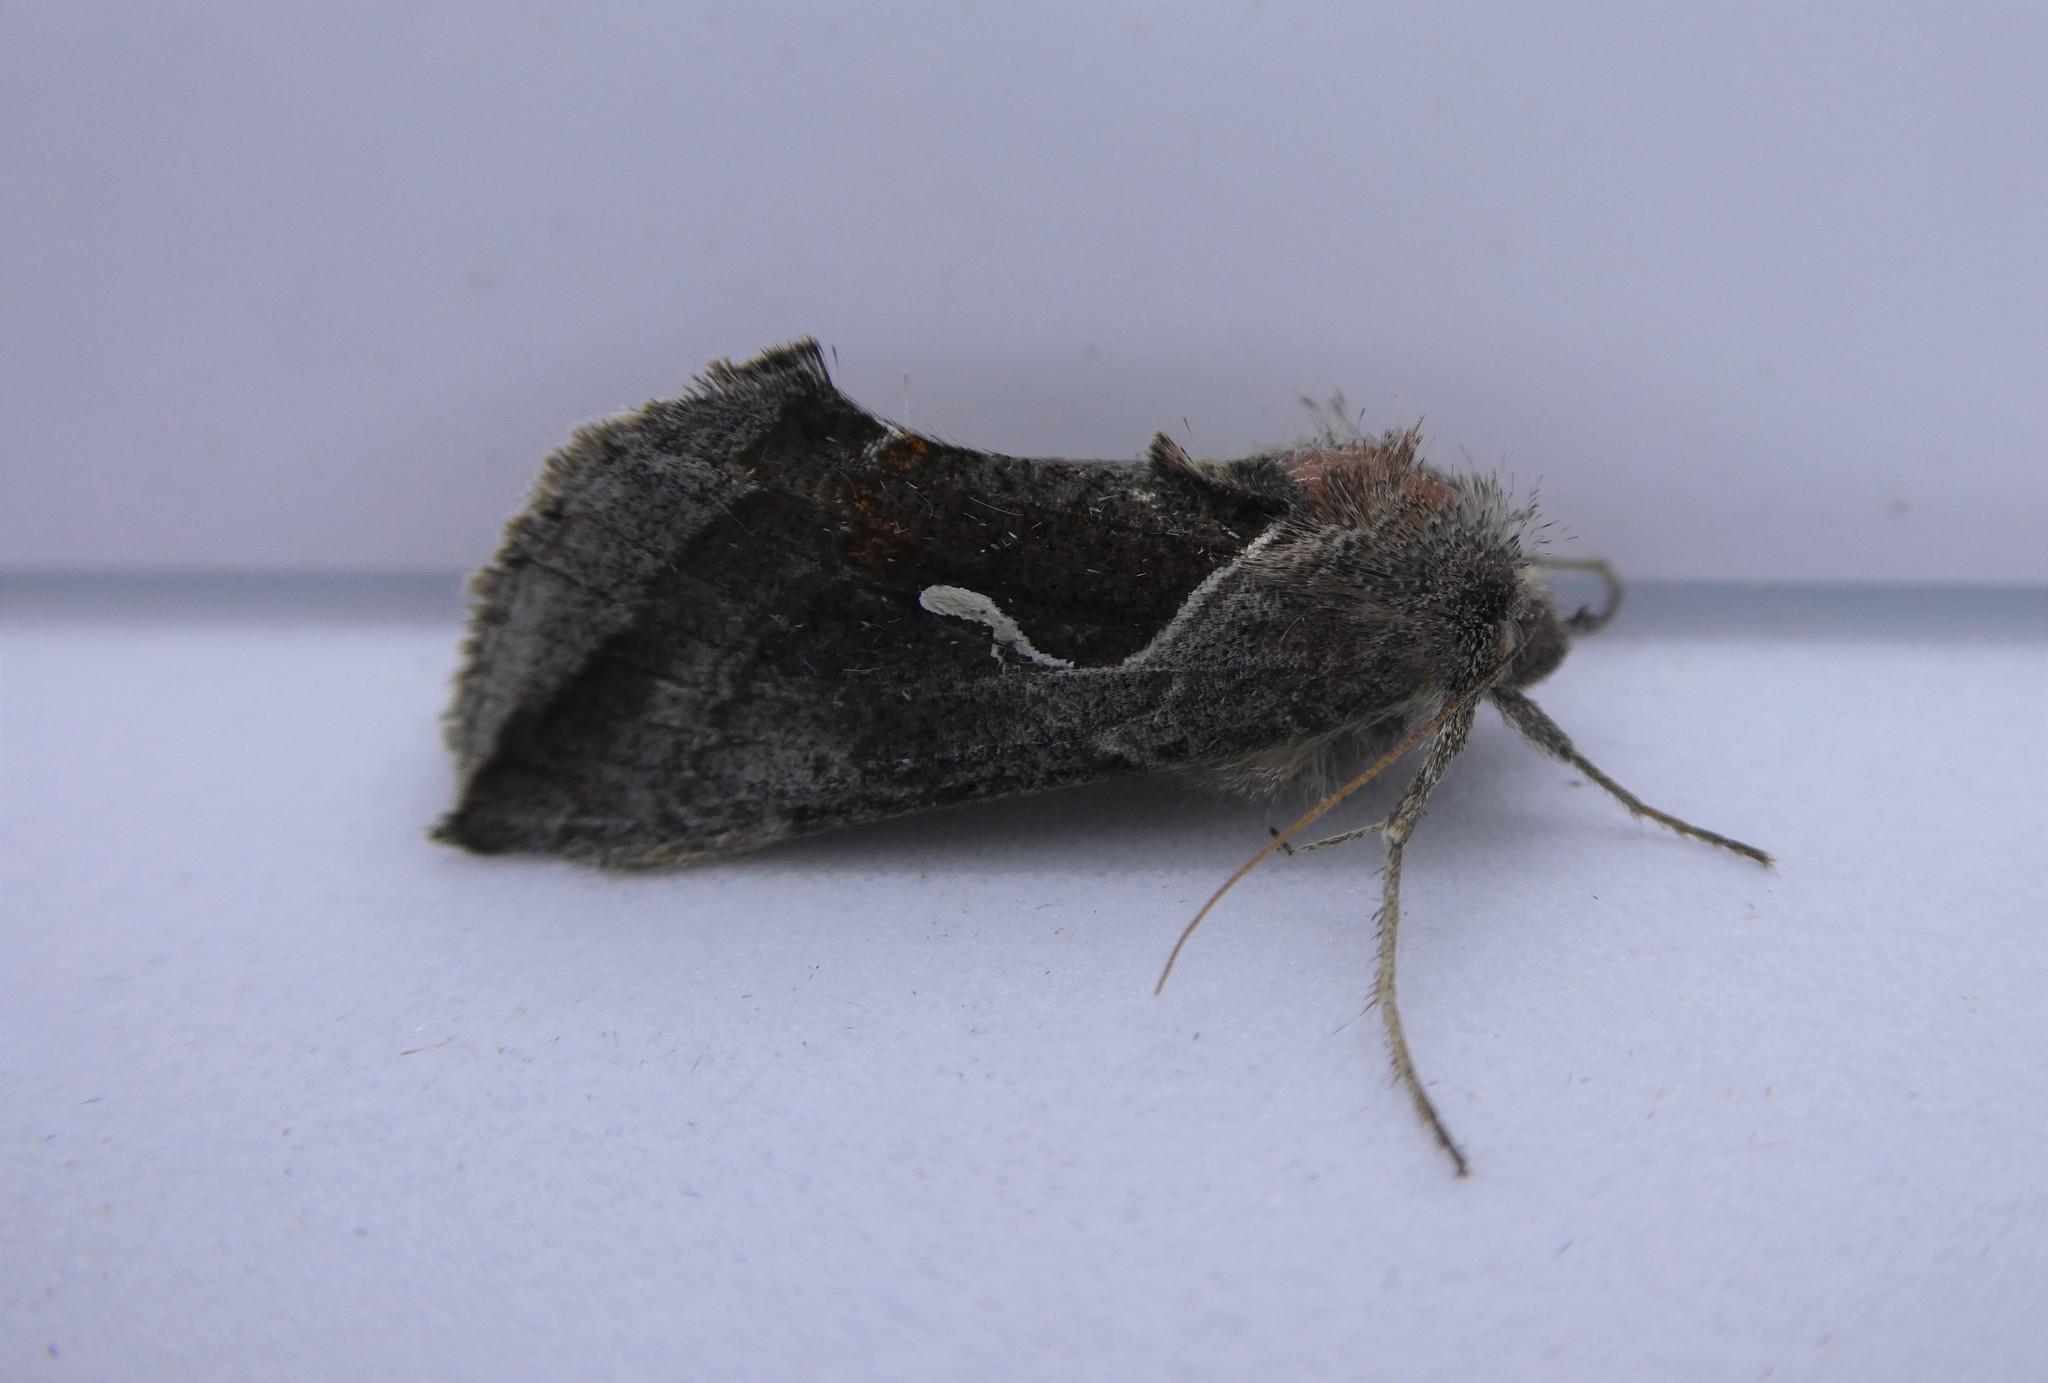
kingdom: Animalia
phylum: Arthropoda
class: Insecta
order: Lepidoptera
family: Noctuidae
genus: Anagrapha
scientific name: Anagrapha falcifera
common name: Celery looper
